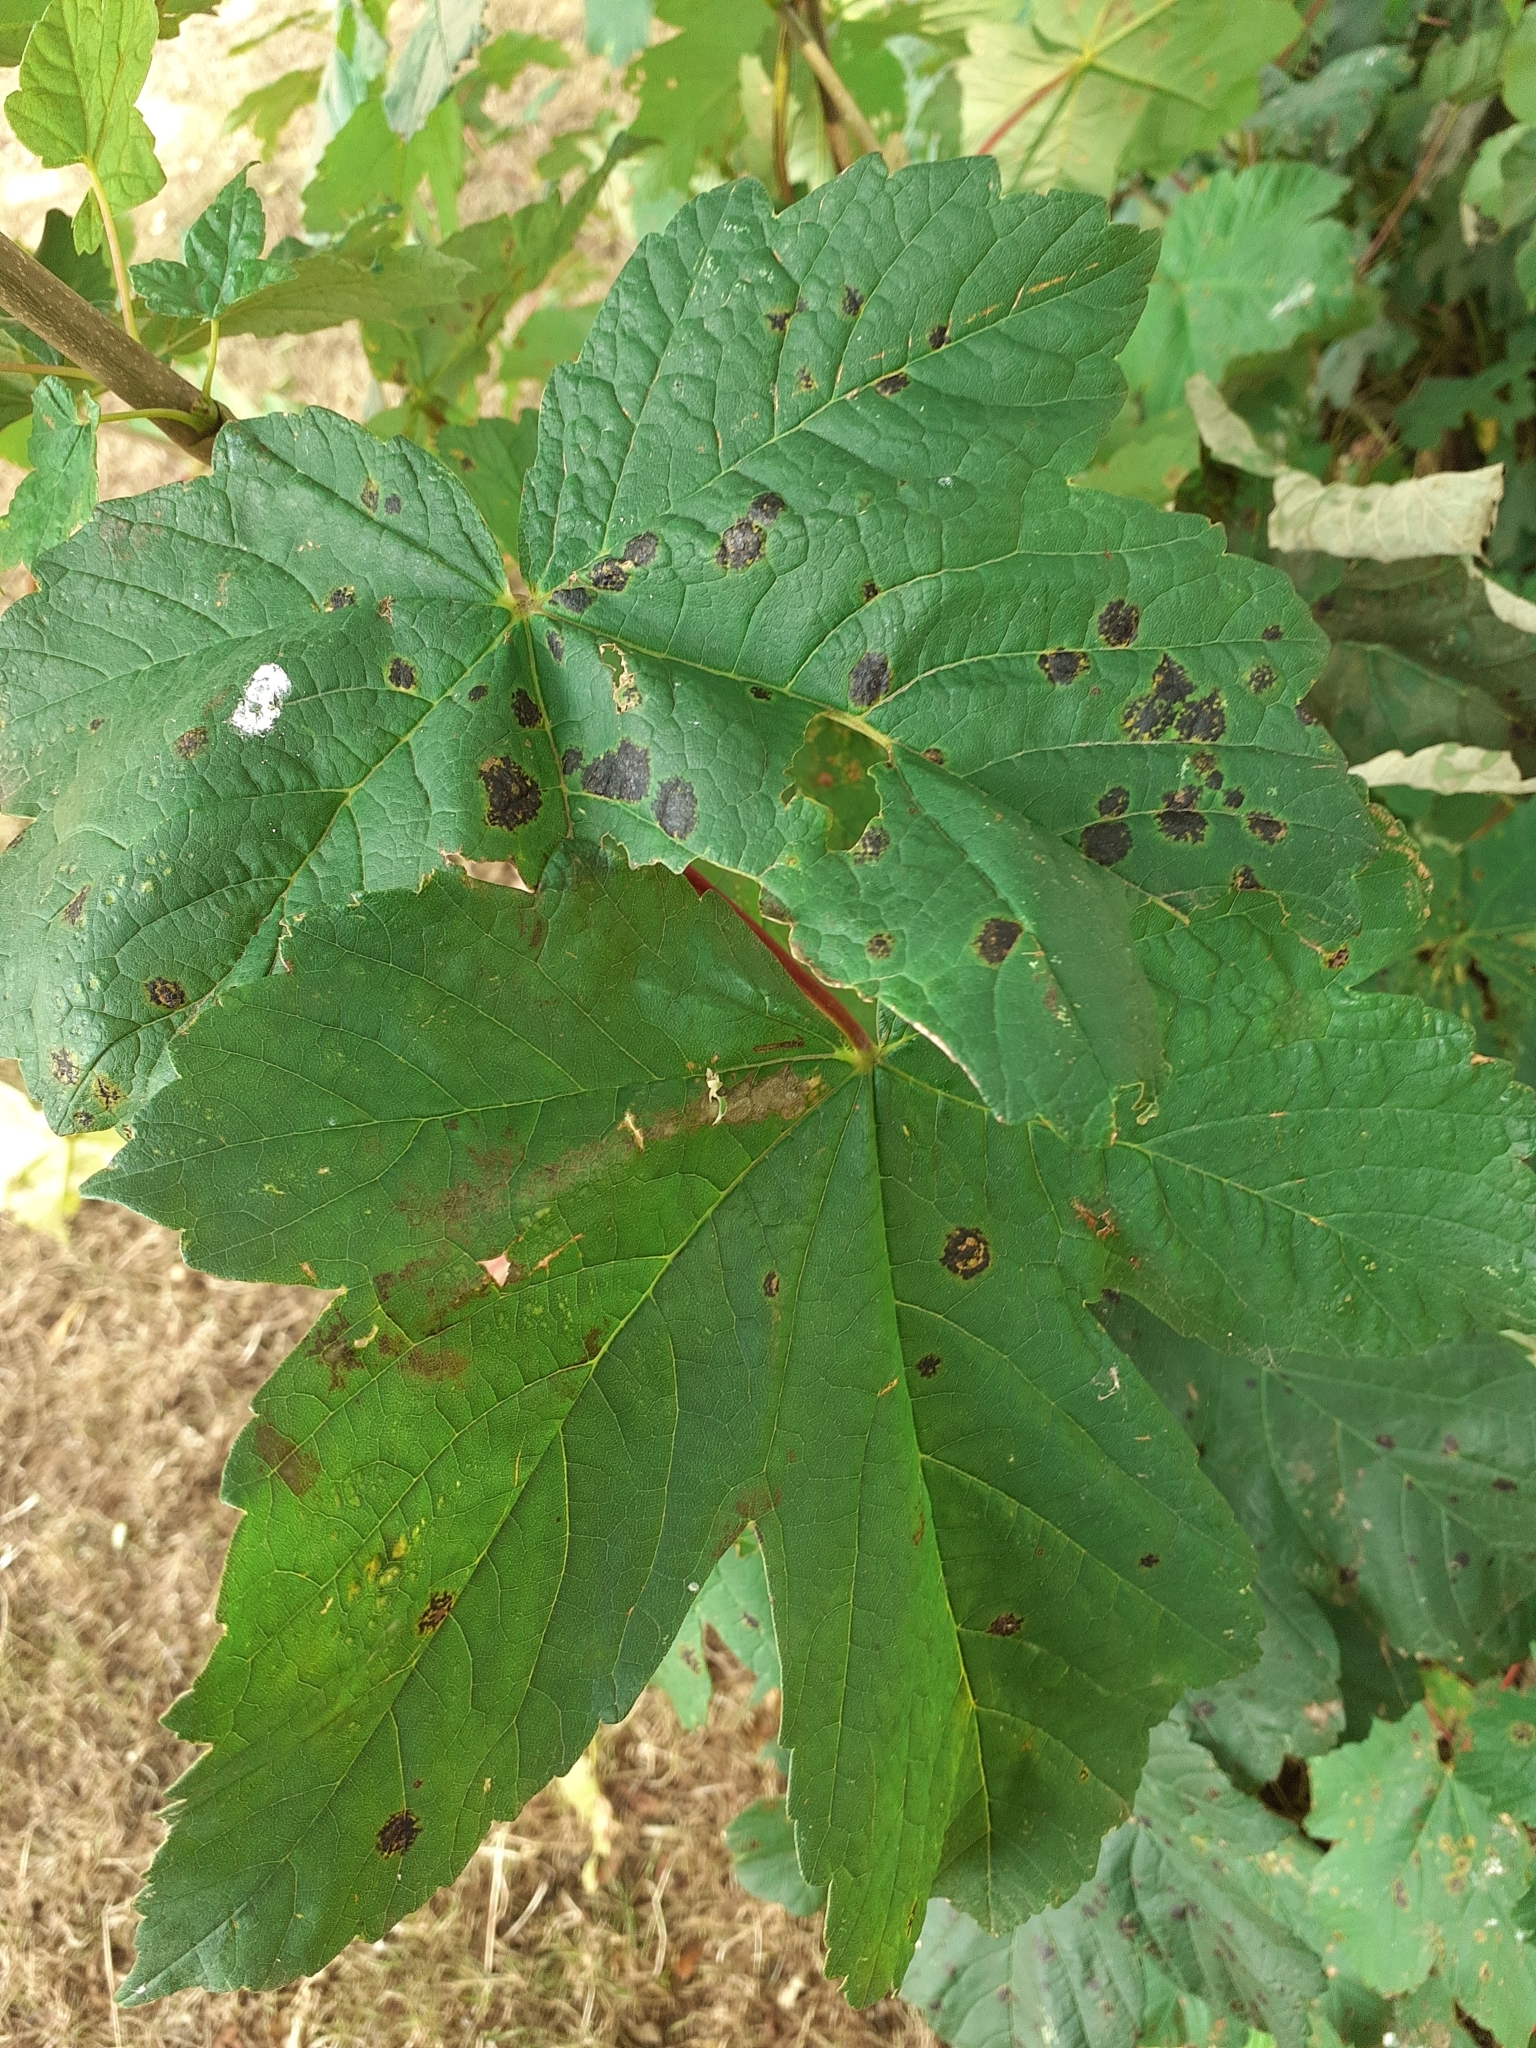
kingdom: Fungi
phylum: Ascomycota
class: Leotiomycetes
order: Rhytismatales
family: Rhytismataceae
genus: Rhytisma
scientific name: Rhytisma acerinum
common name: European tar spot
